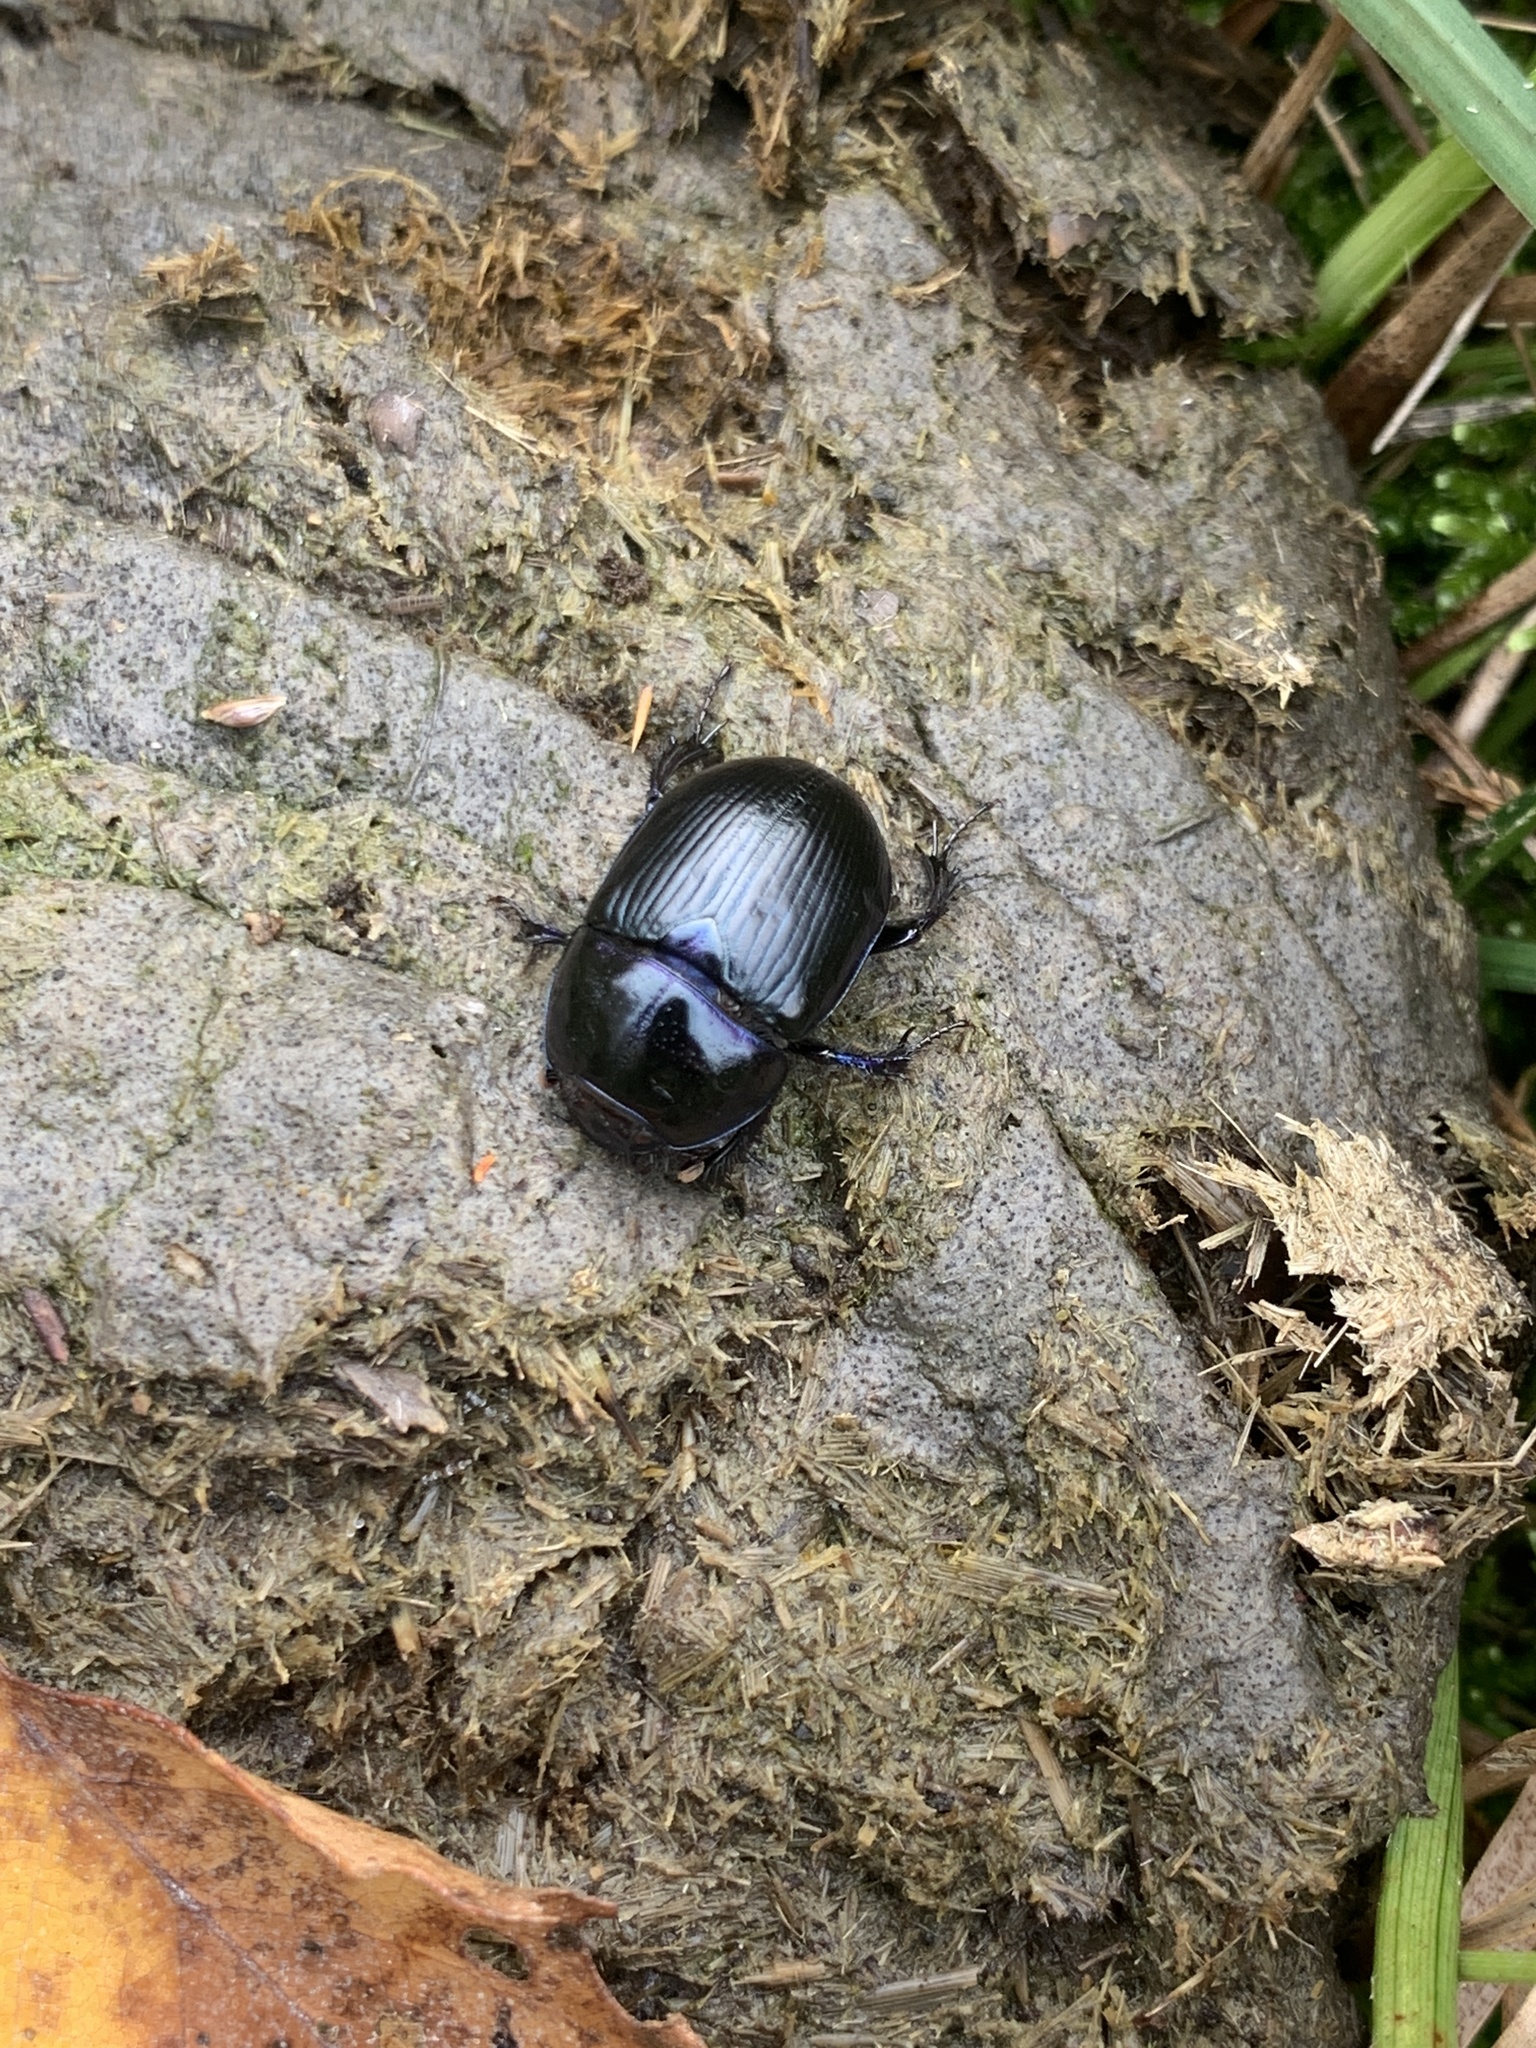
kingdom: Animalia
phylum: Arthropoda
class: Insecta
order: Coleoptera
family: Geotrupidae
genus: Anoplotrupes
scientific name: Anoplotrupes stercorosus
